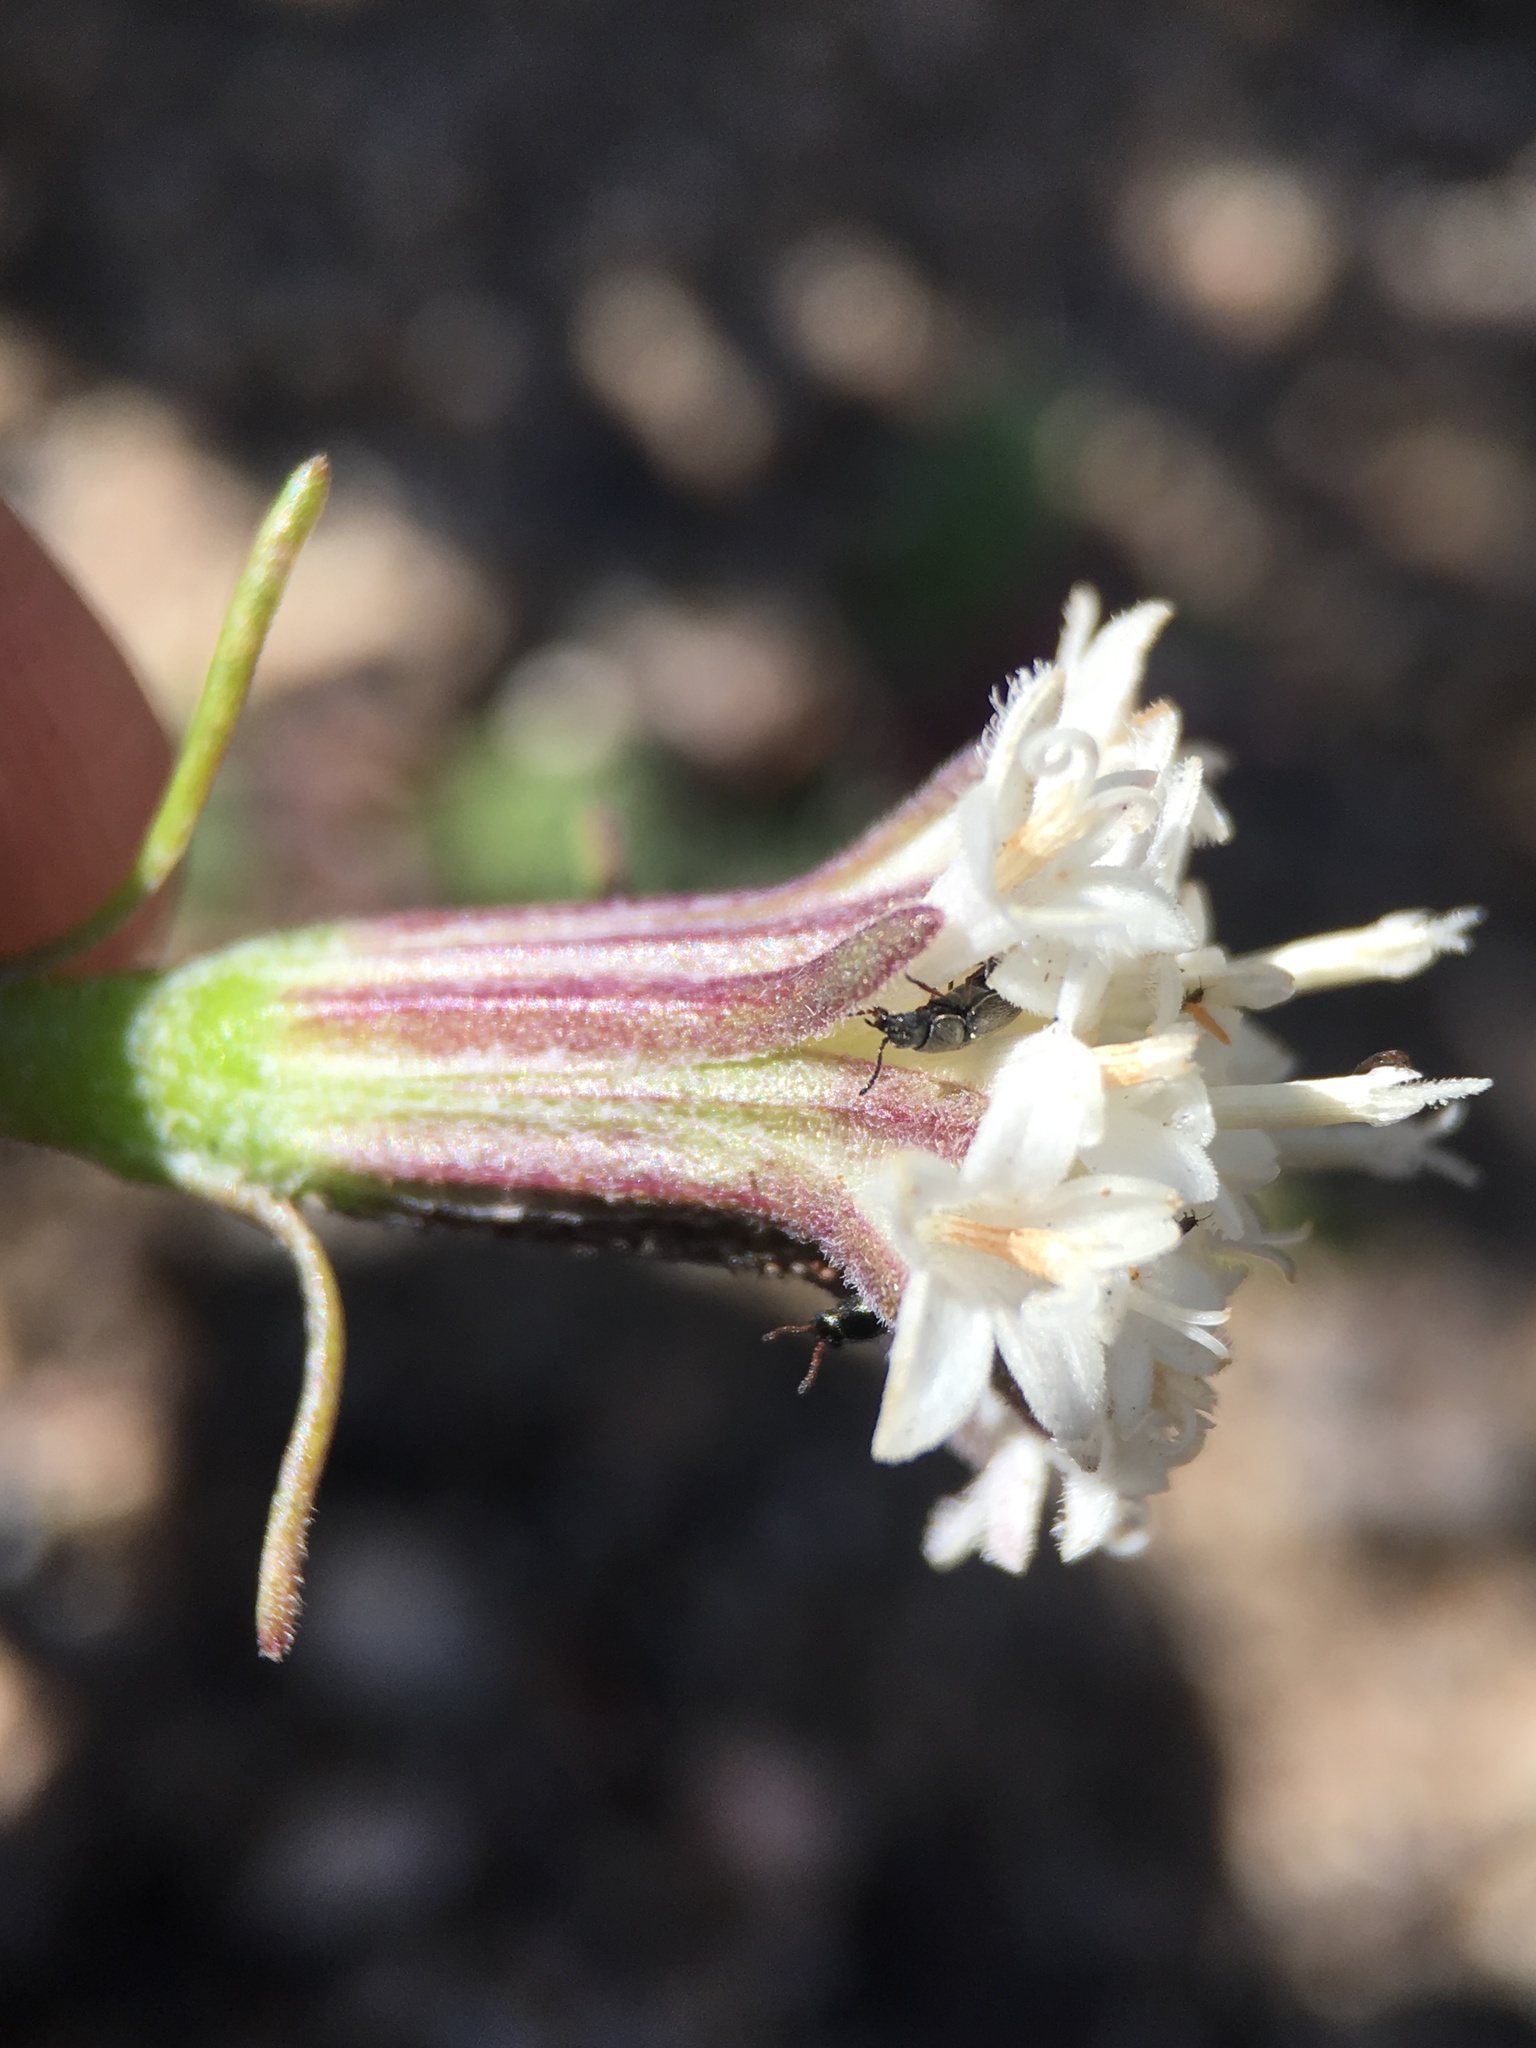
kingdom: Plantae
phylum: Tracheophyta
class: Magnoliopsida
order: Asterales
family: Asteraceae
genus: Chaenactis
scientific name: Chaenactis xantiana
